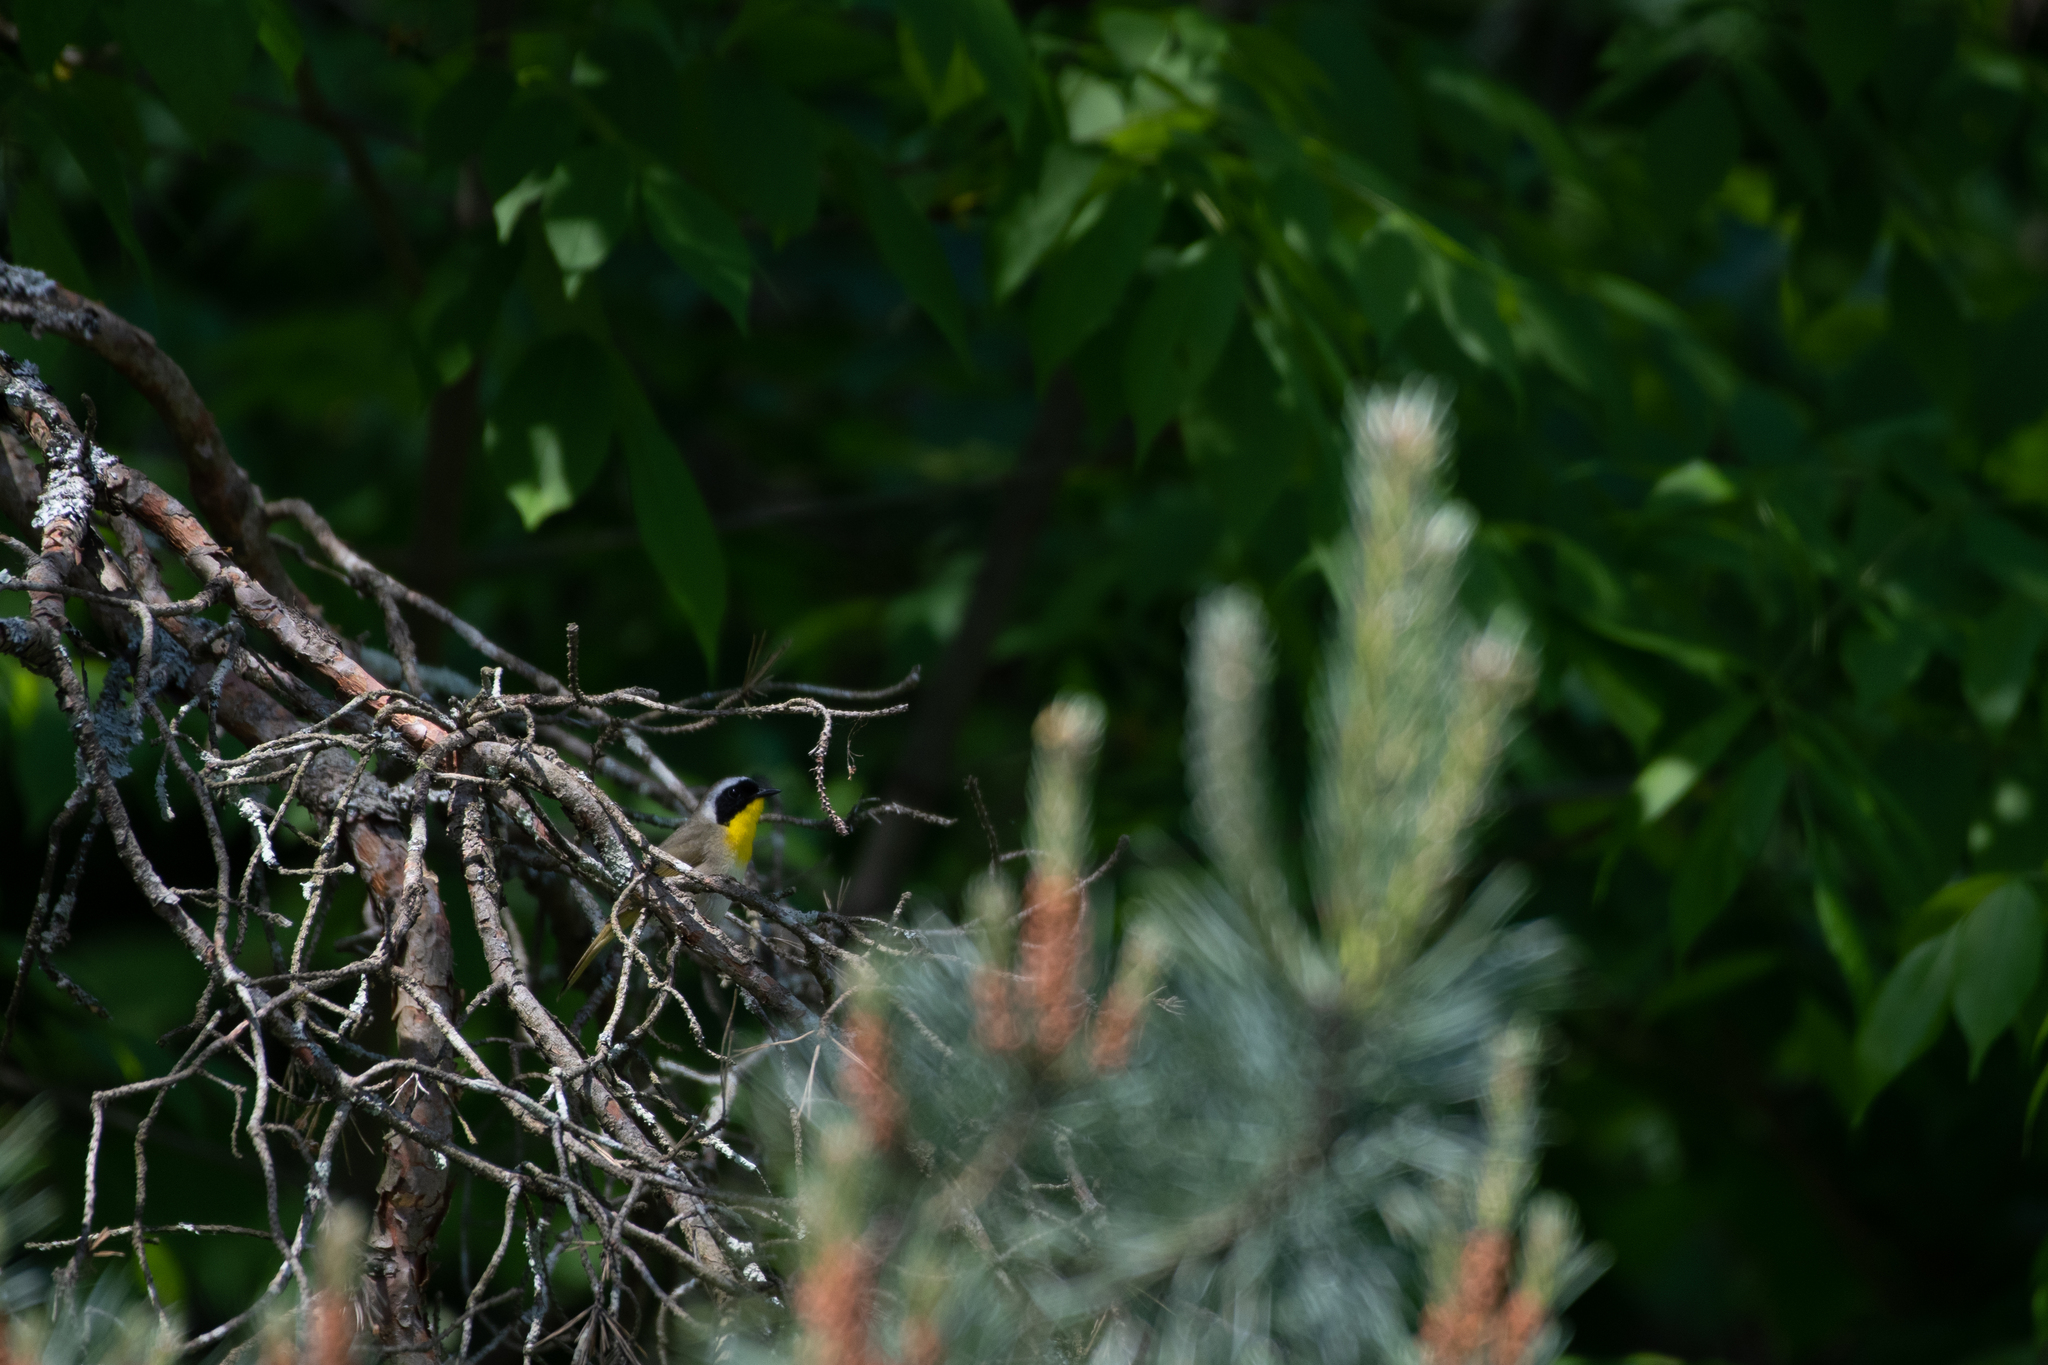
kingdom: Animalia
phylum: Chordata
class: Aves
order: Passeriformes
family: Parulidae
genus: Geothlypis
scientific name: Geothlypis trichas
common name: Common yellowthroat
